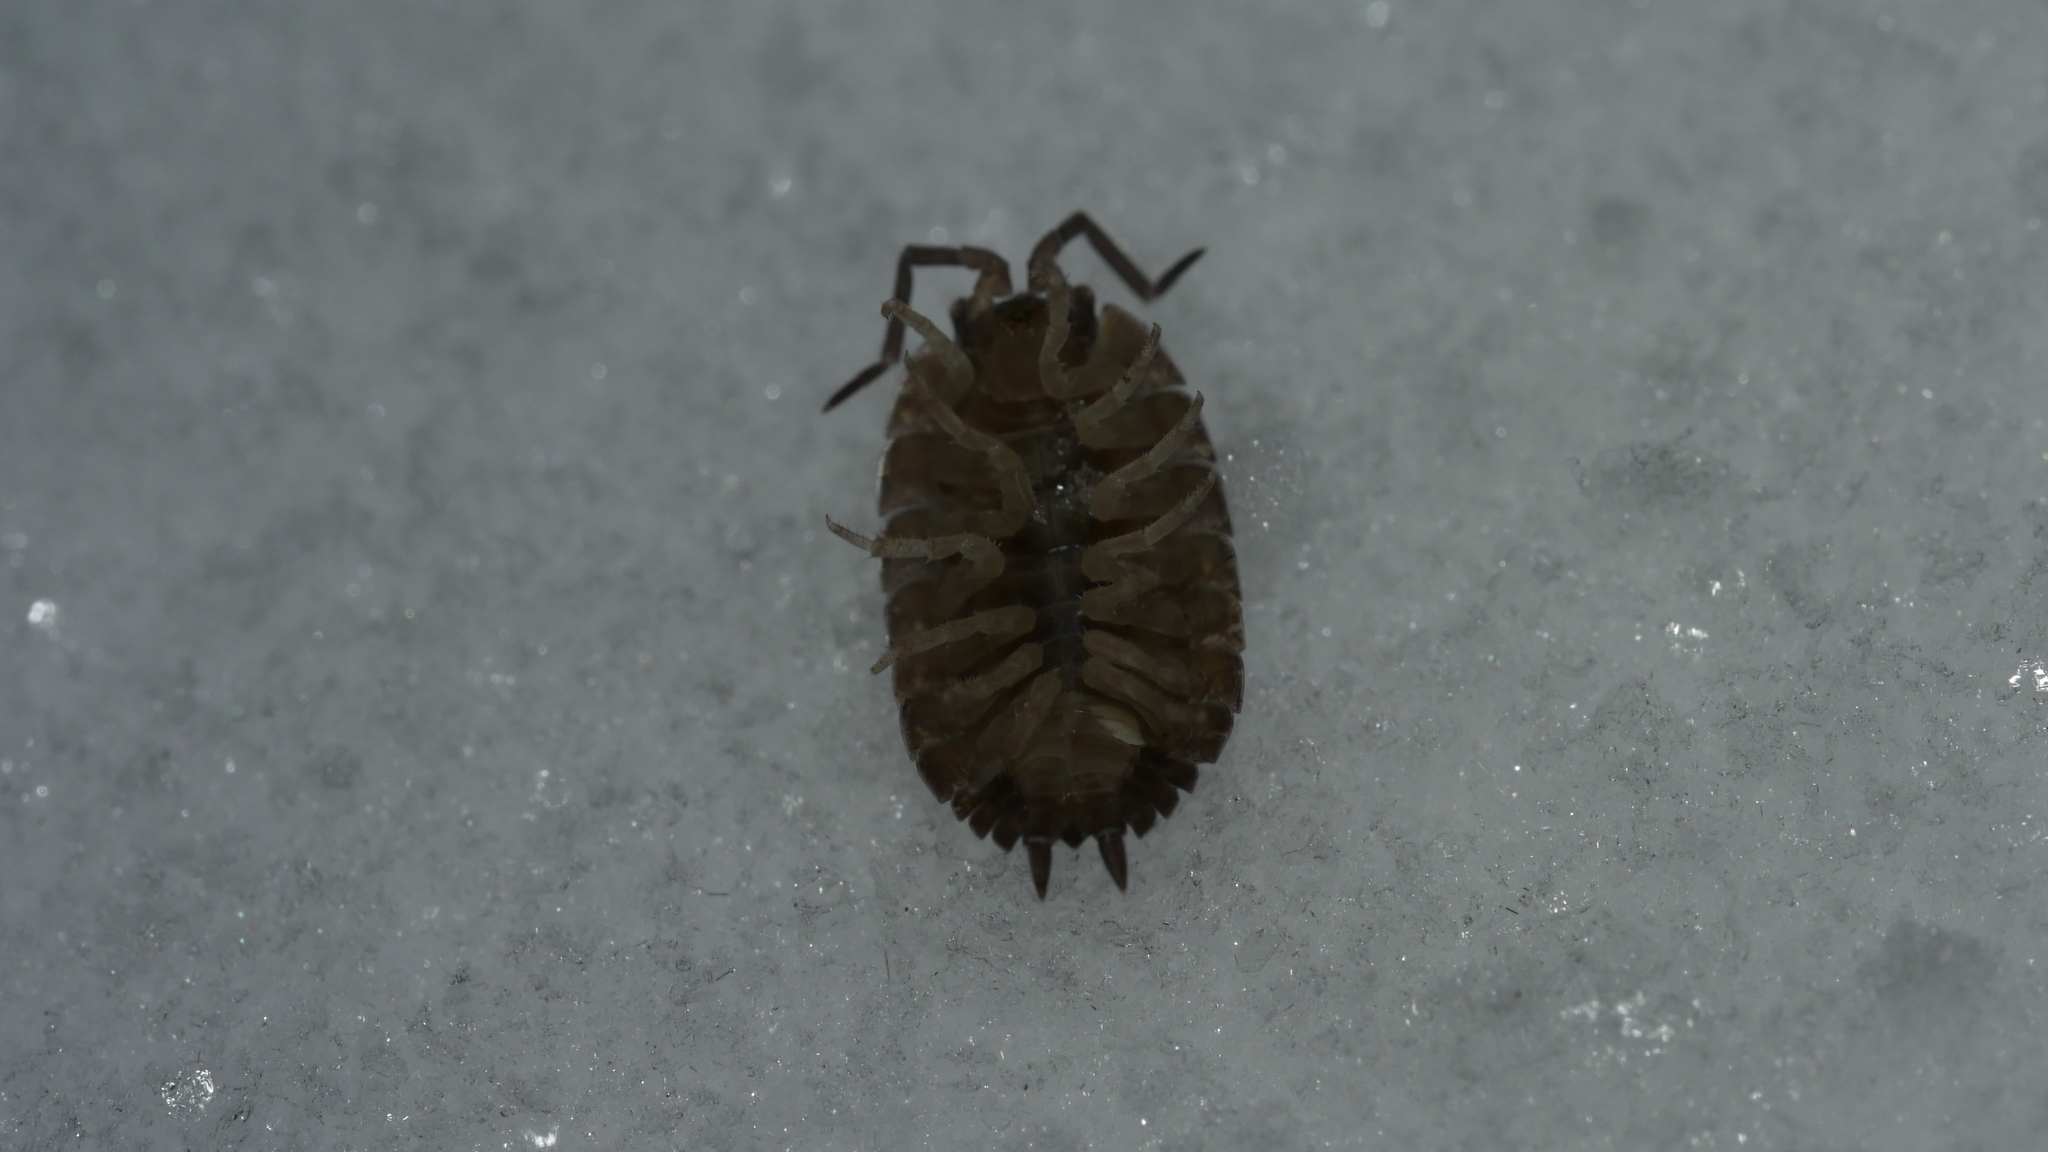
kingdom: Animalia
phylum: Arthropoda
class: Malacostraca
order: Isopoda
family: Porcellionidae
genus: Porcellio
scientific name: Porcellio scaber
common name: Common rough woodlouse
